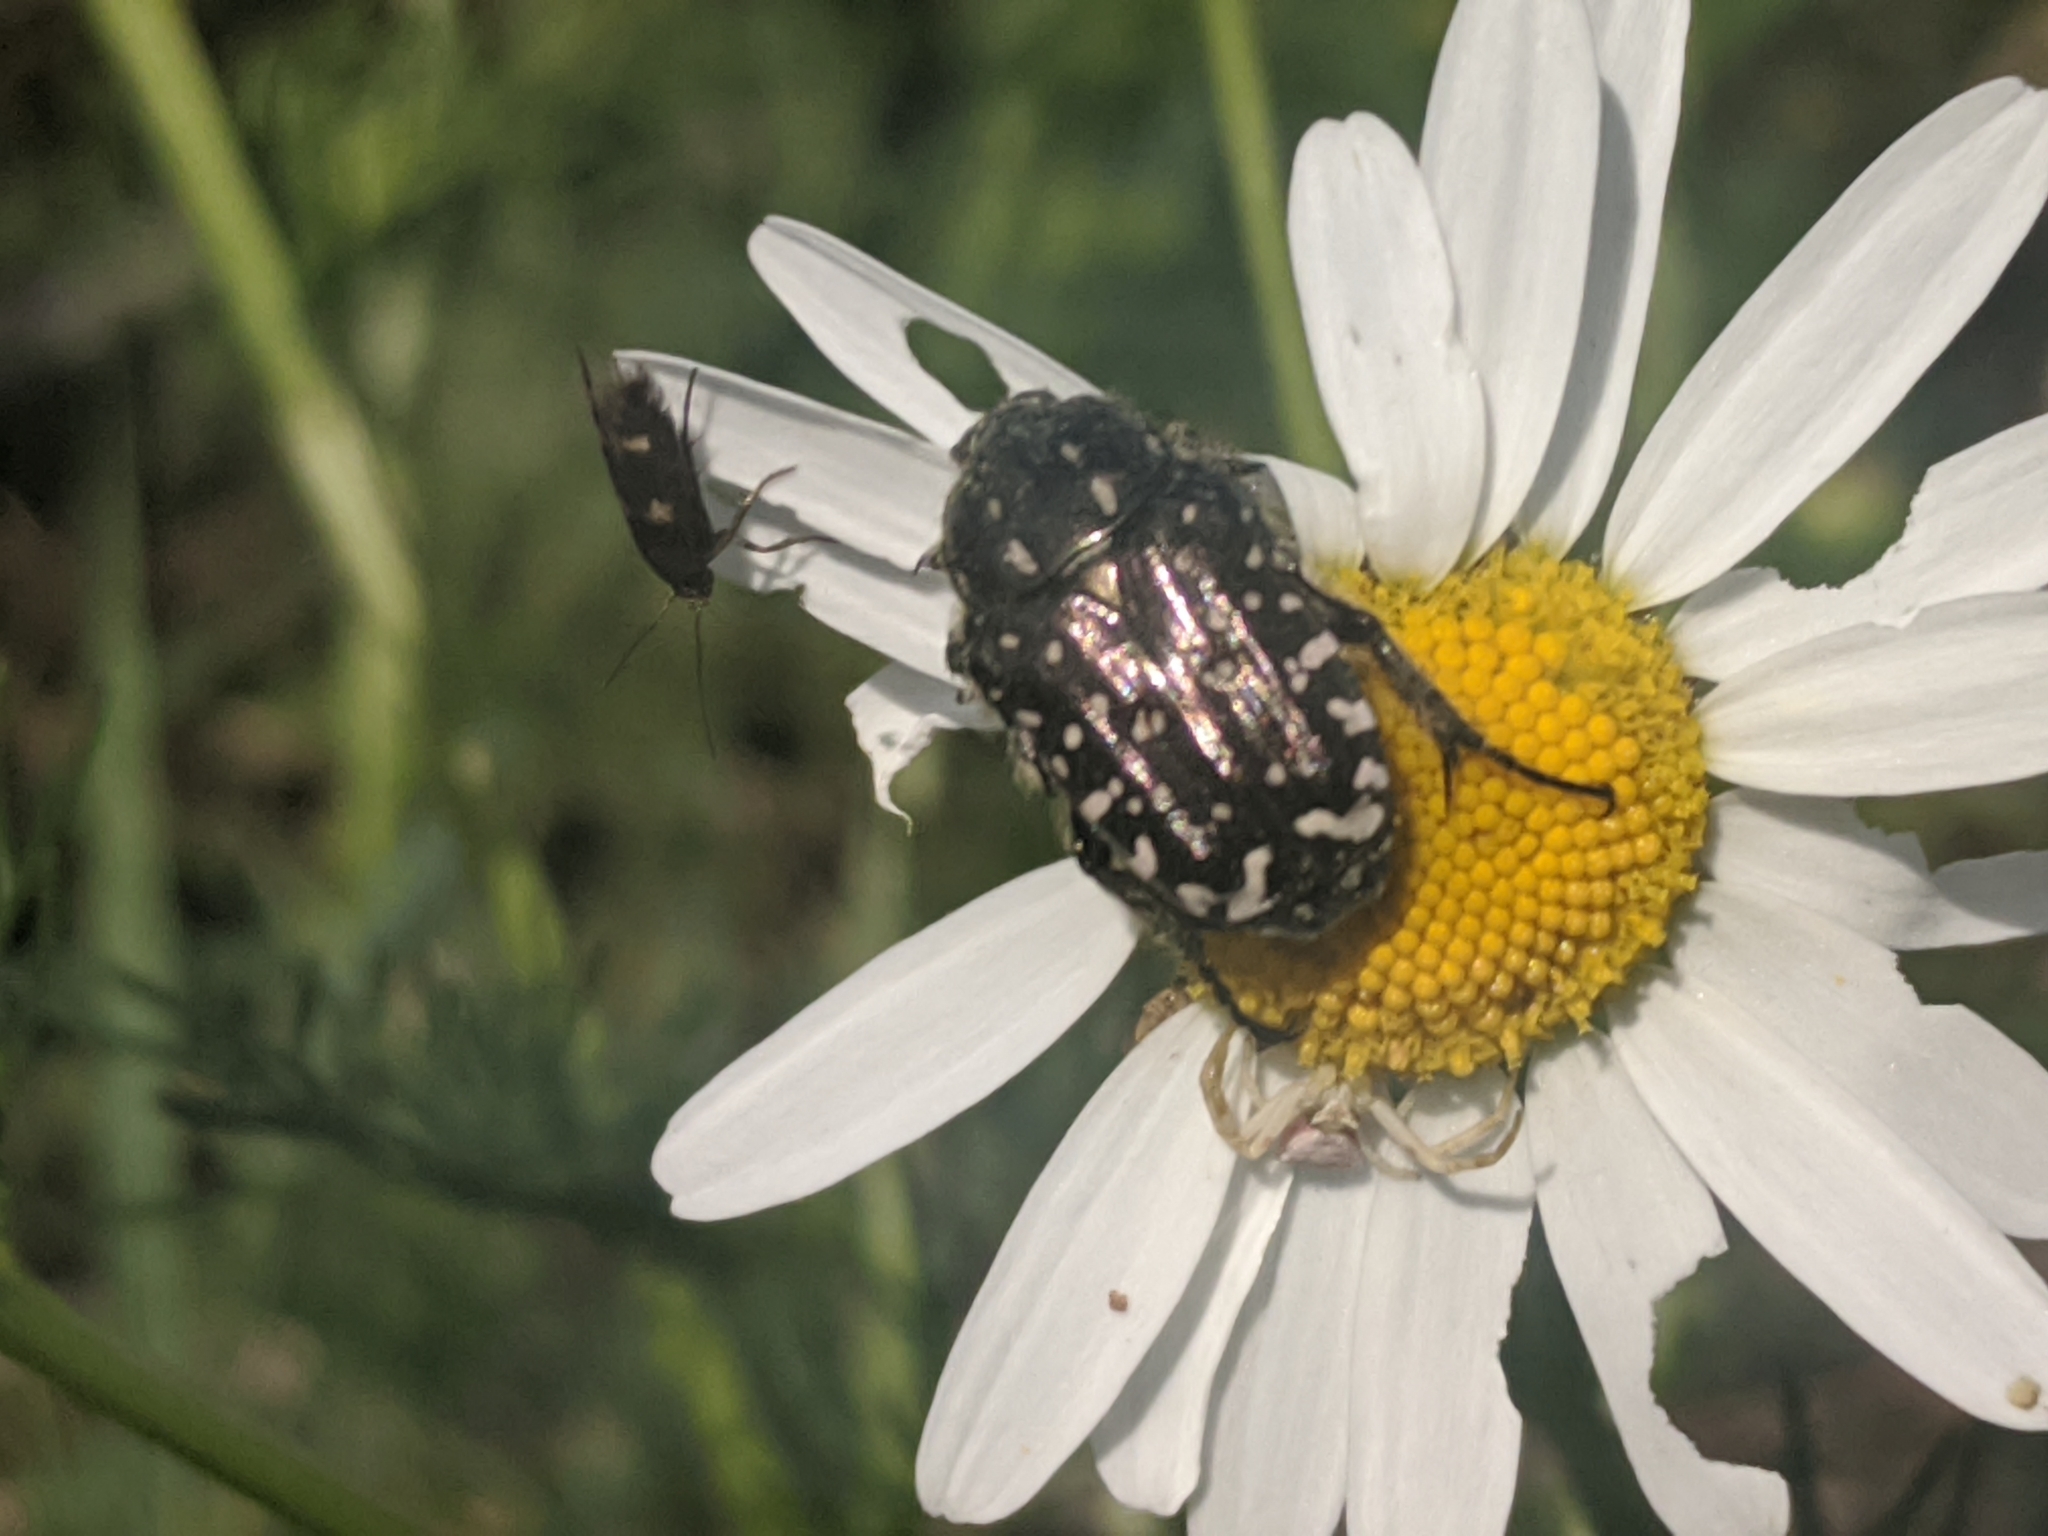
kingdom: Animalia
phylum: Arthropoda
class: Insecta
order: Coleoptera
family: Scarabaeidae
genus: Oxythyrea
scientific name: Oxythyrea funesta
